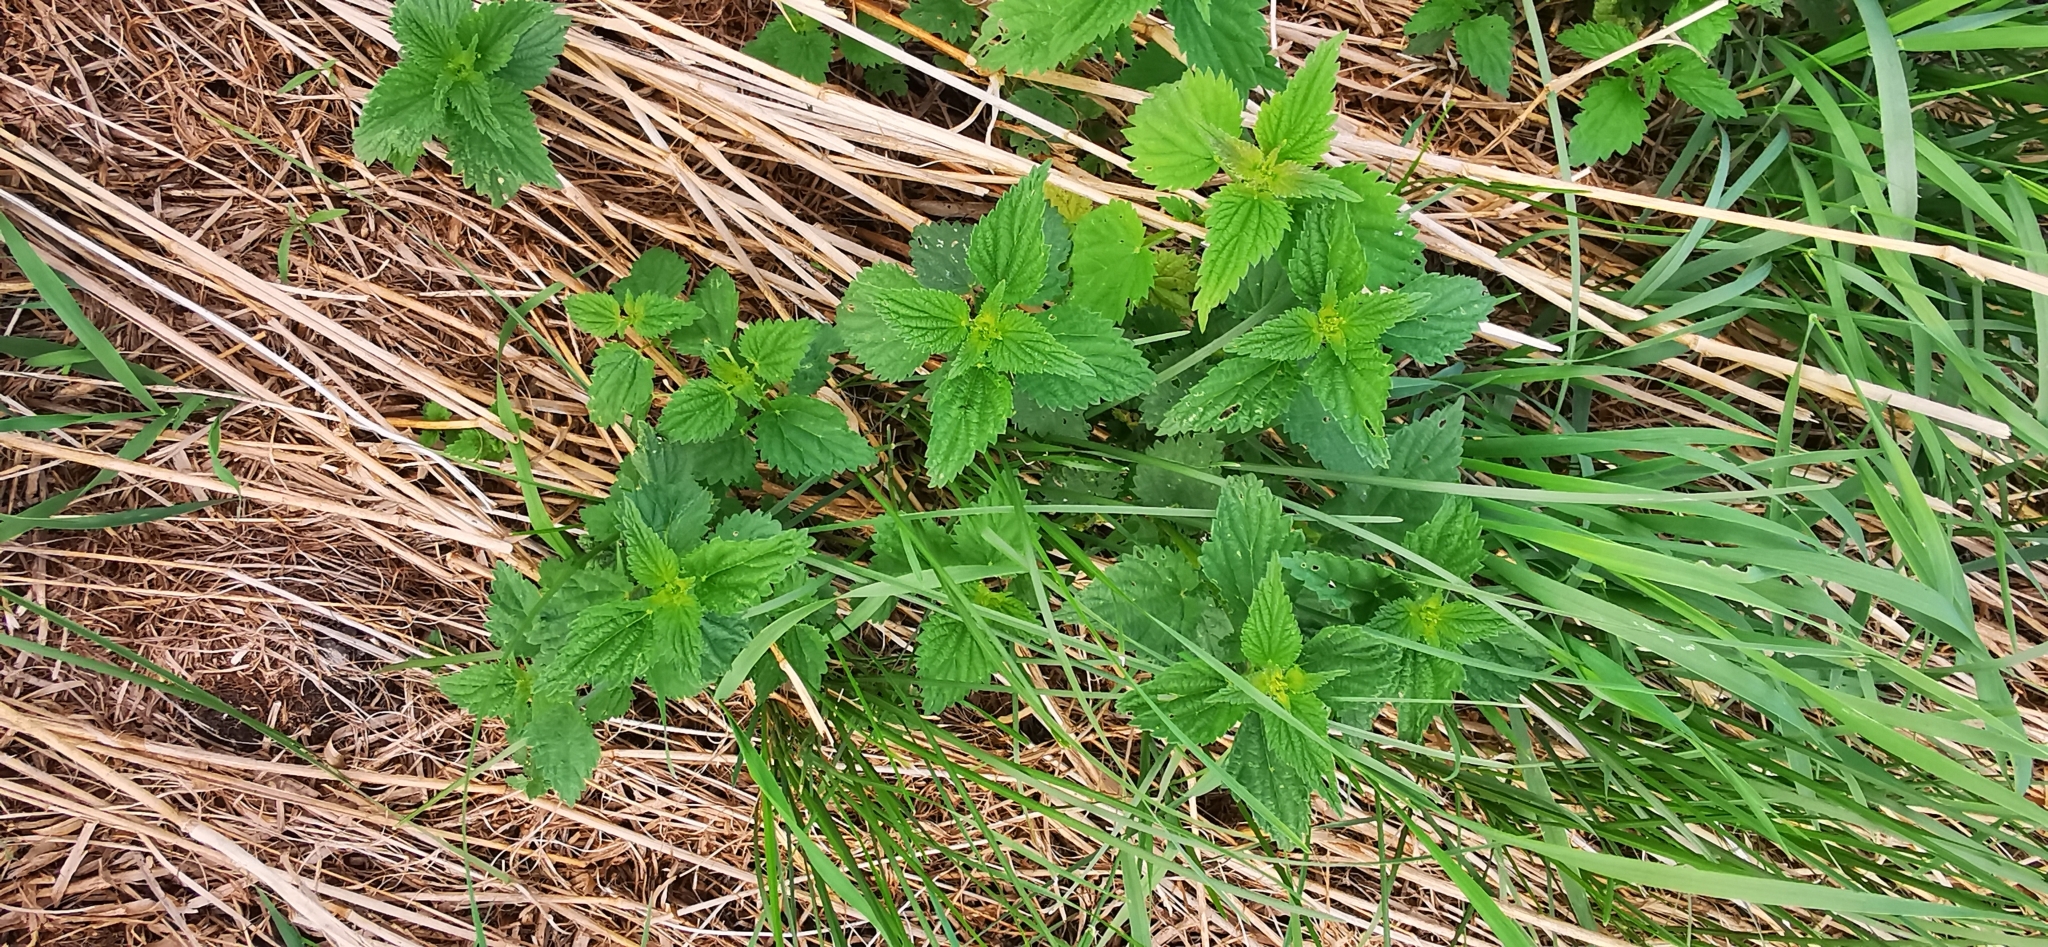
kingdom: Plantae
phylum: Tracheophyta
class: Magnoliopsida
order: Rosales
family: Urticaceae
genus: Urtica
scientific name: Urtica dioica
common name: Common nettle
